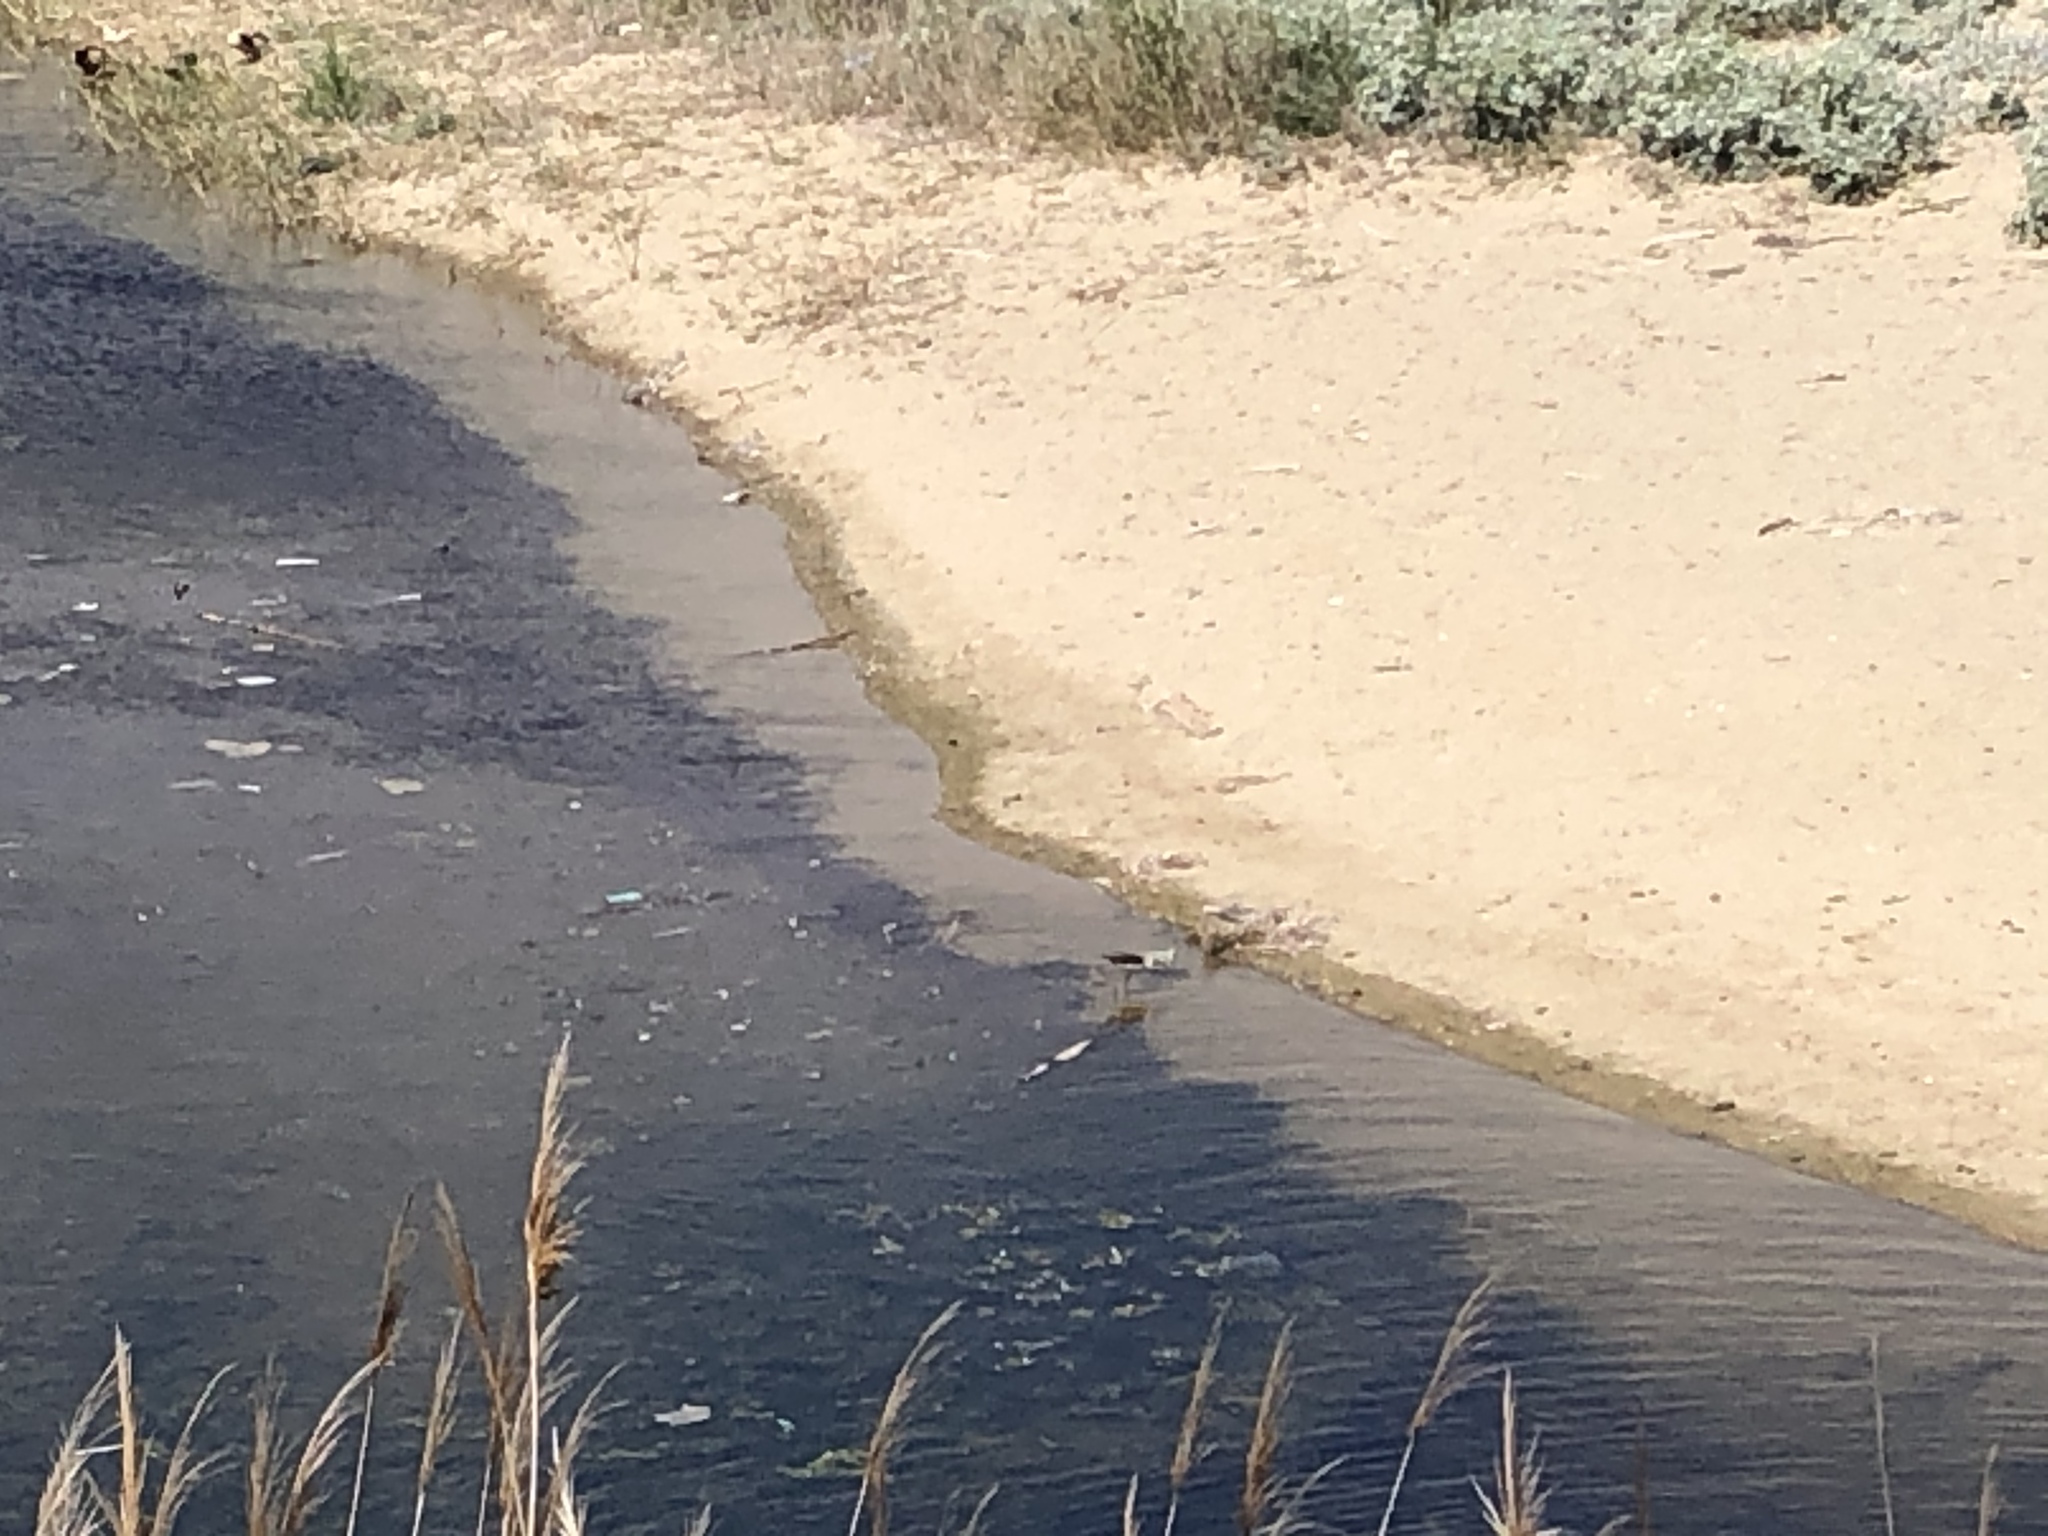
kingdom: Animalia
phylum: Chordata
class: Aves
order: Charadriiformes
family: Recurvirostridae
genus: Himantopus
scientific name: Himantopus himantopus
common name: Black-winged stilt
